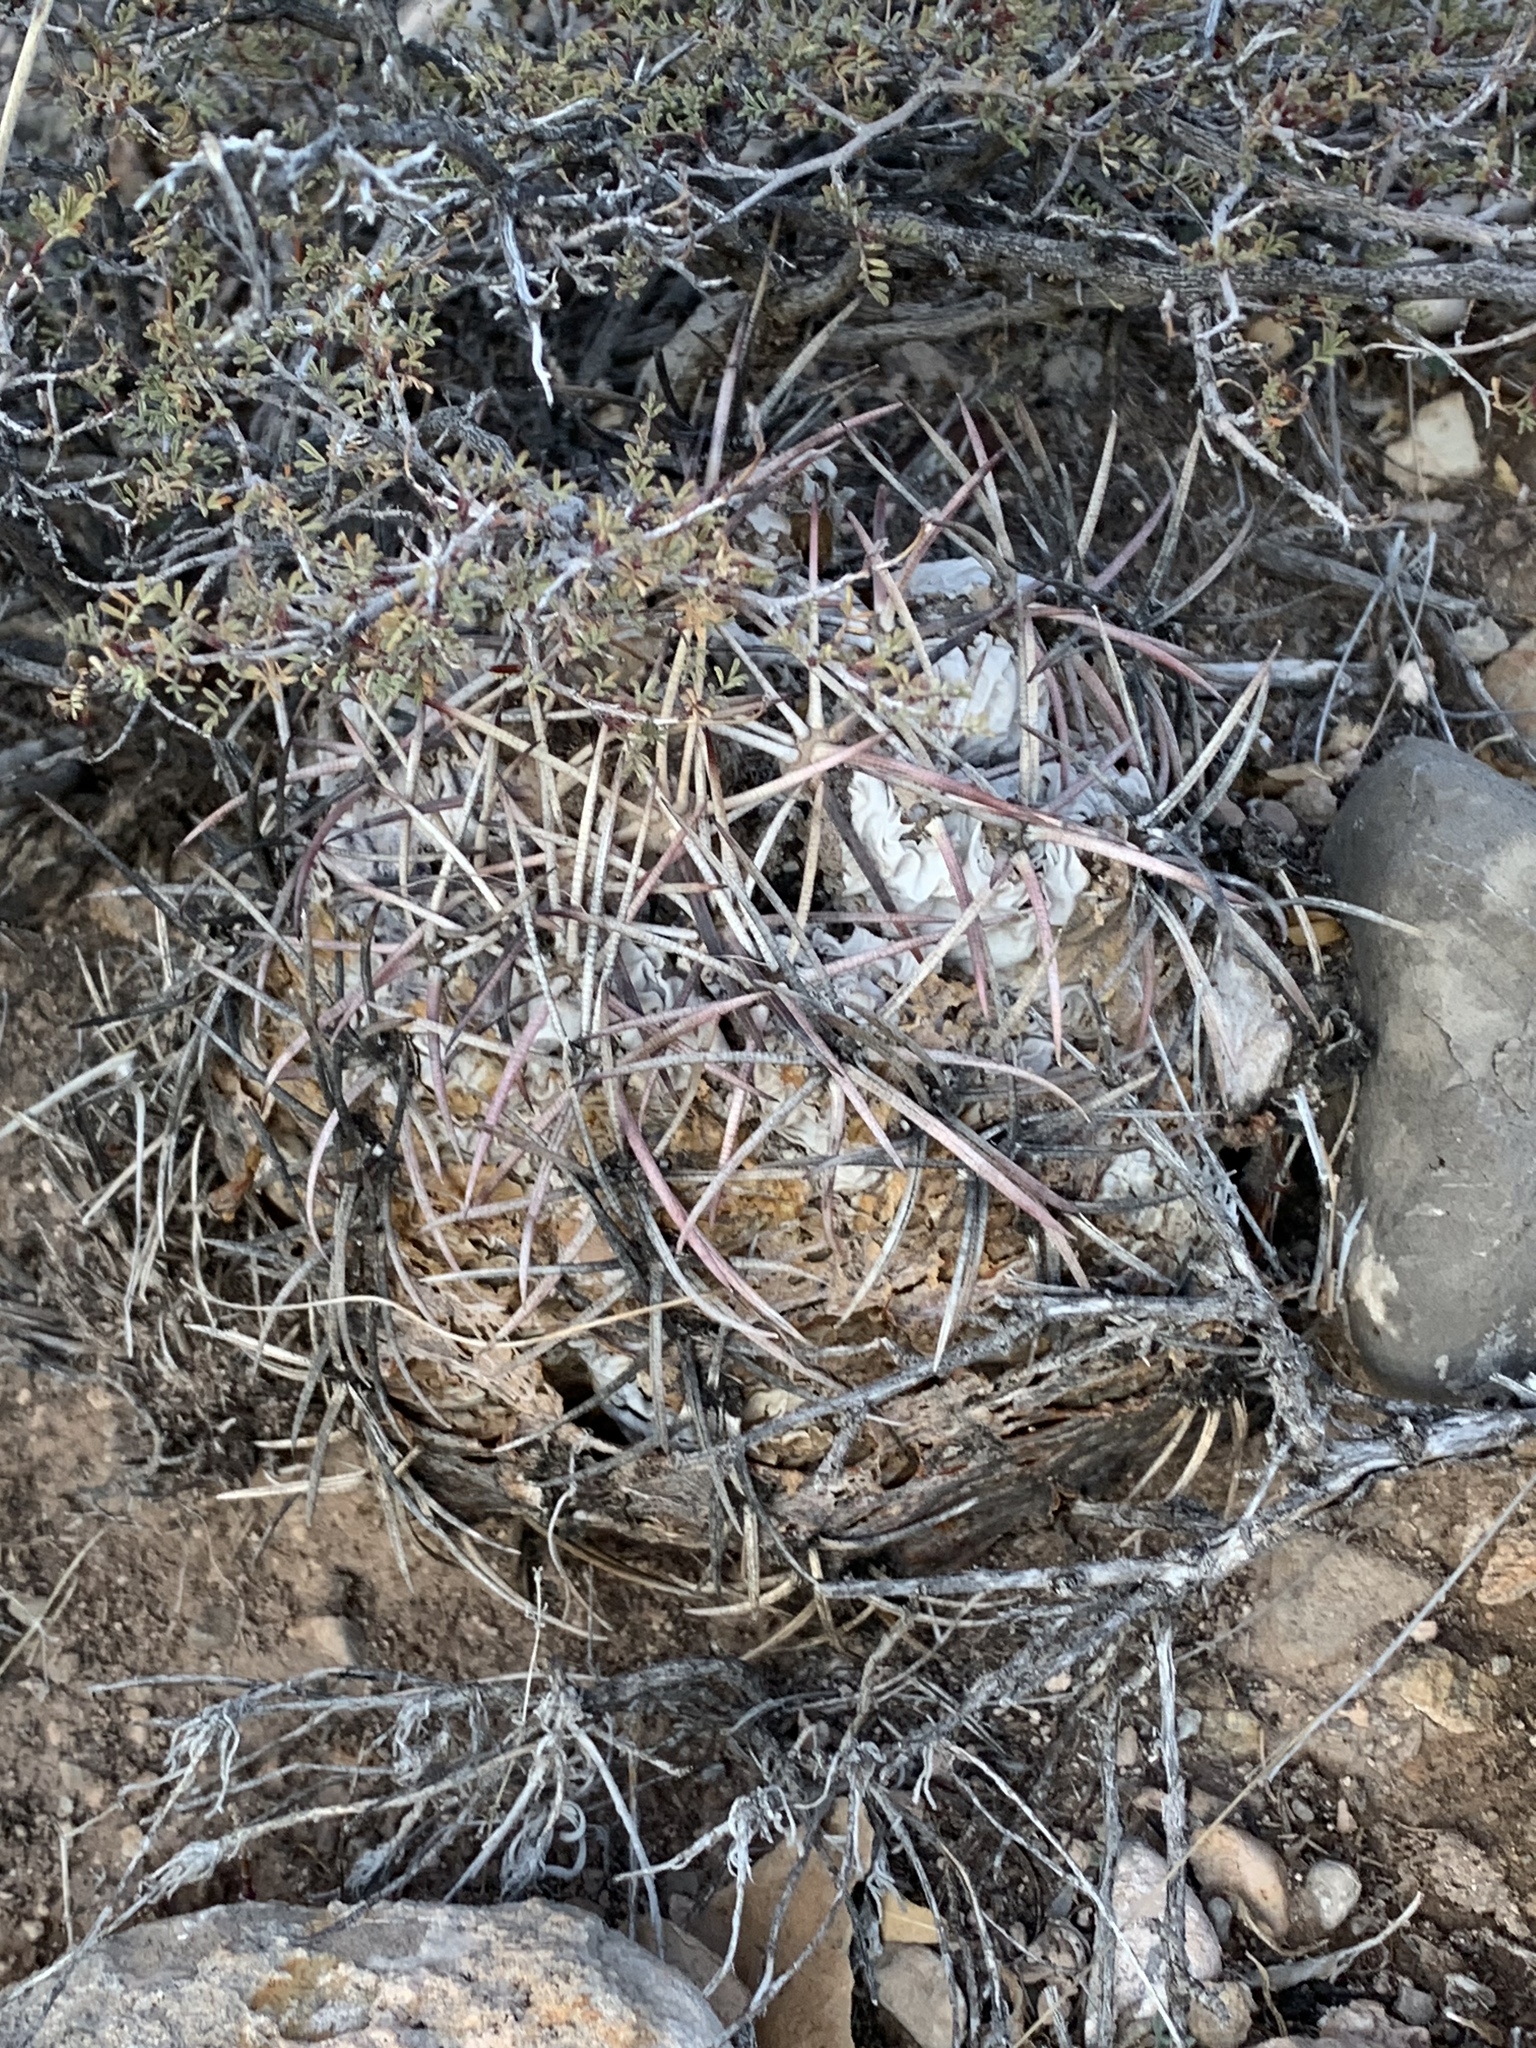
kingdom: Plantae
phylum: Tracheophyta
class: Magnoliopsida
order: Caryophyllales
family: Cactaceae
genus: Echinocactus
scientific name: Echinocactus horizonthalonius
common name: Devilshead
